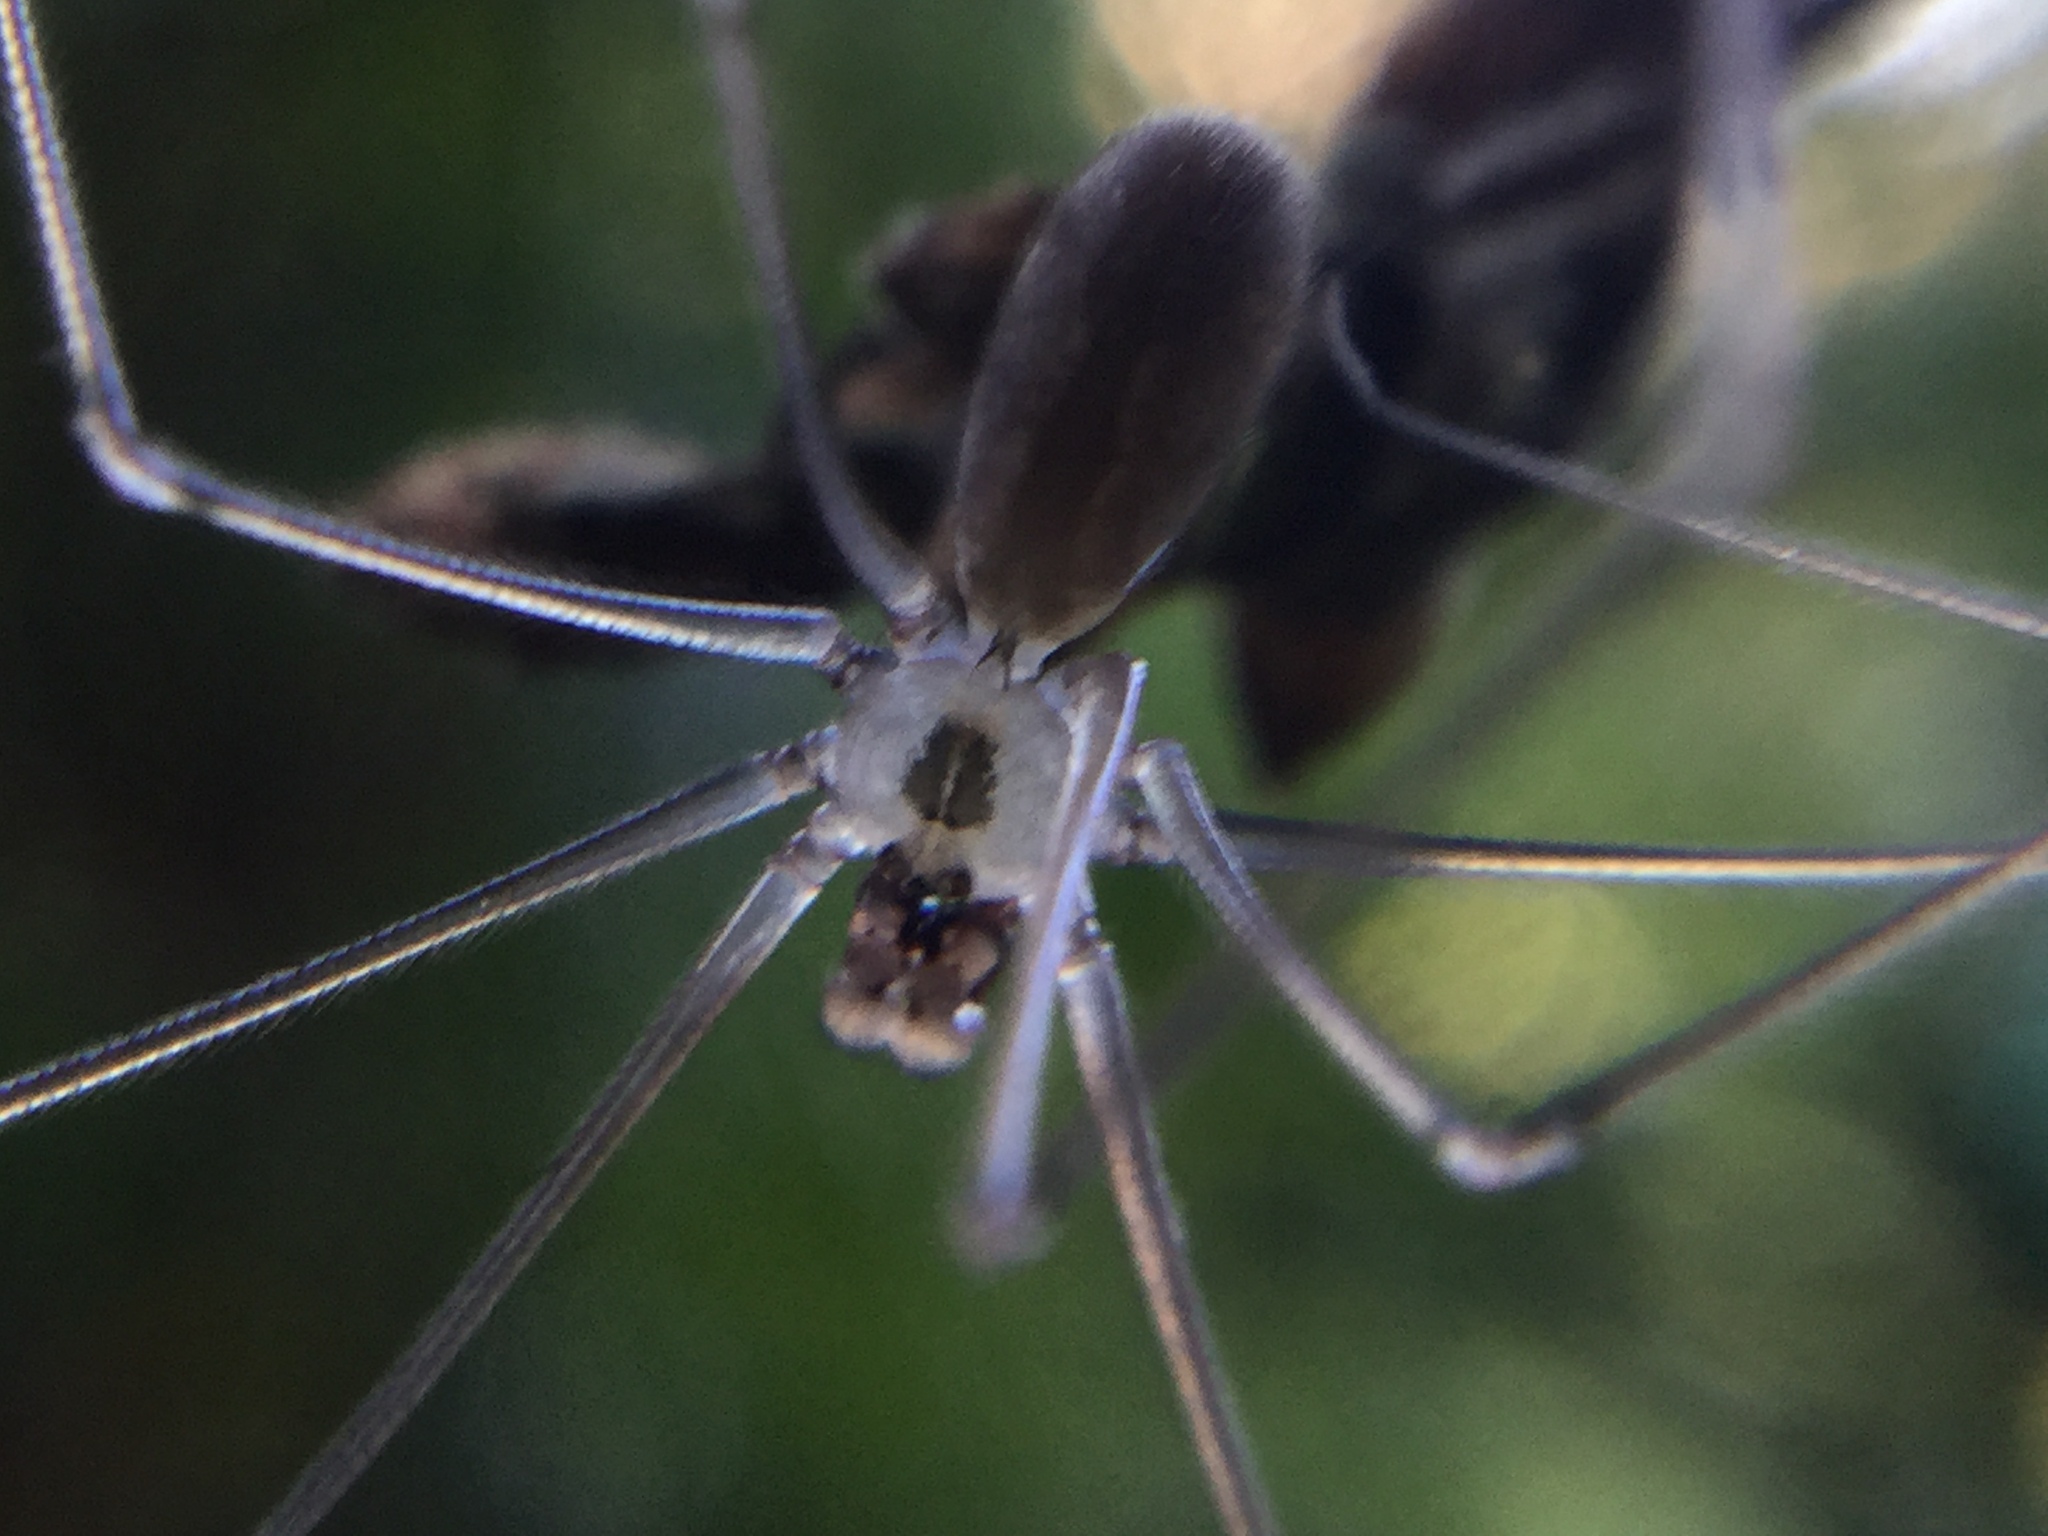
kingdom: Animalia
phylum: Arthropoda
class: Arachnida
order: Araneae
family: Pholcidae
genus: Pholcus
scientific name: Pholcus manueli
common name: Cellar spider
